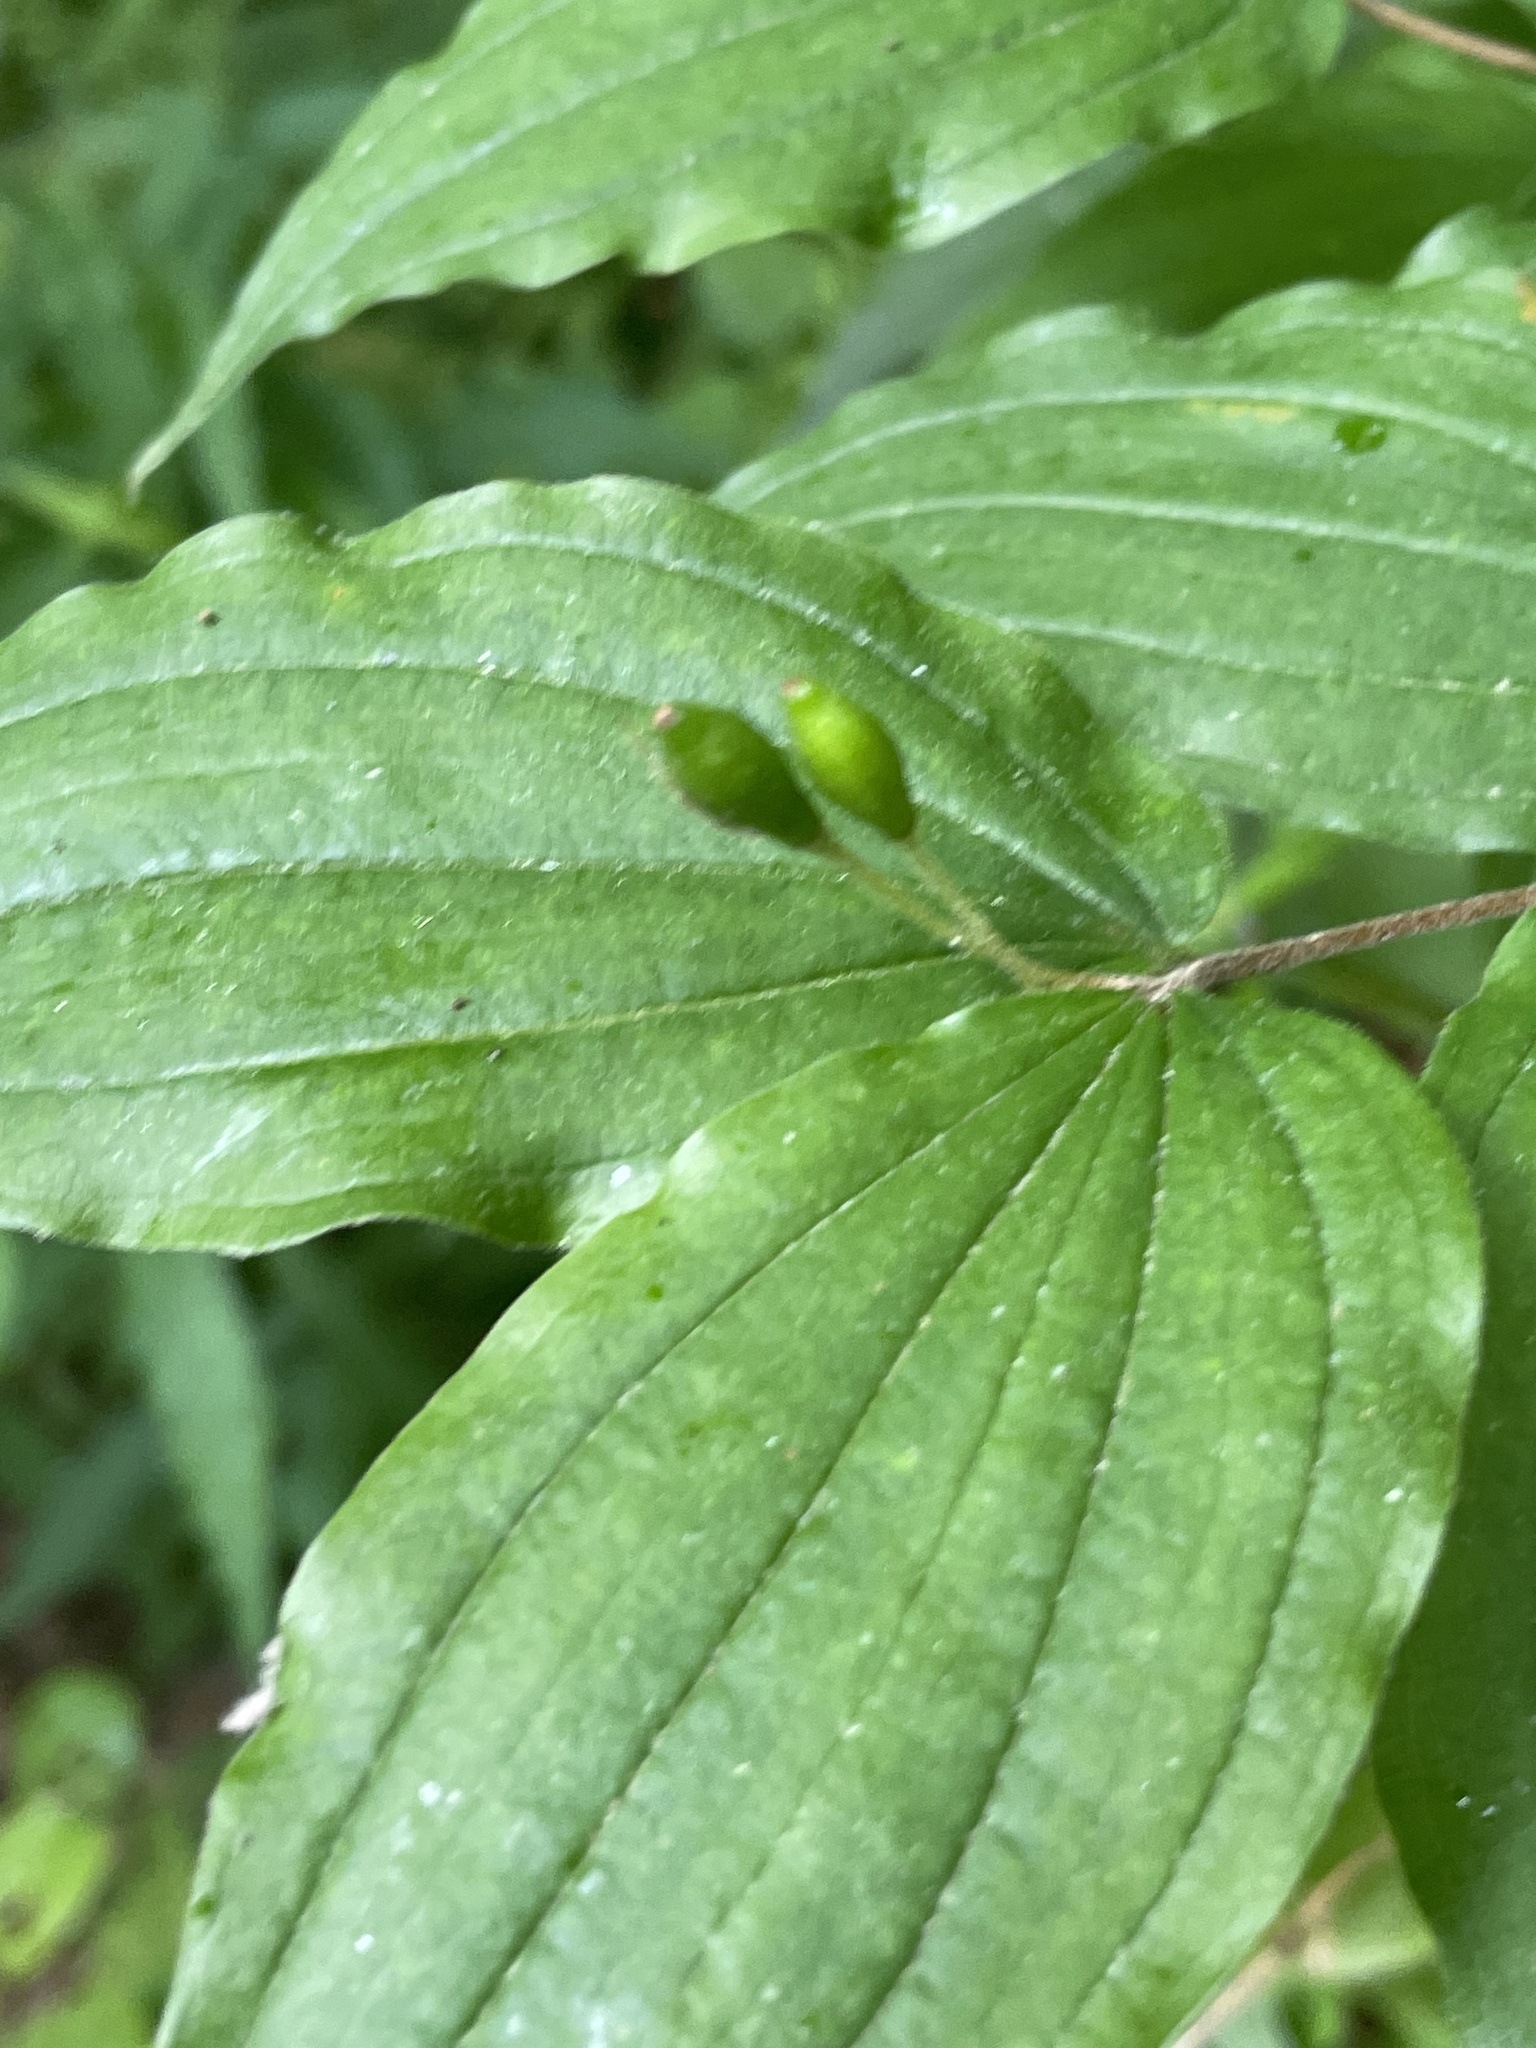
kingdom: Plantae
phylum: Tracheophyta
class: Liliopsida
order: Liliales
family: Liliaceae
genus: Prosartes
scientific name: Prosartes lanuginosa
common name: Hairy mandarin
